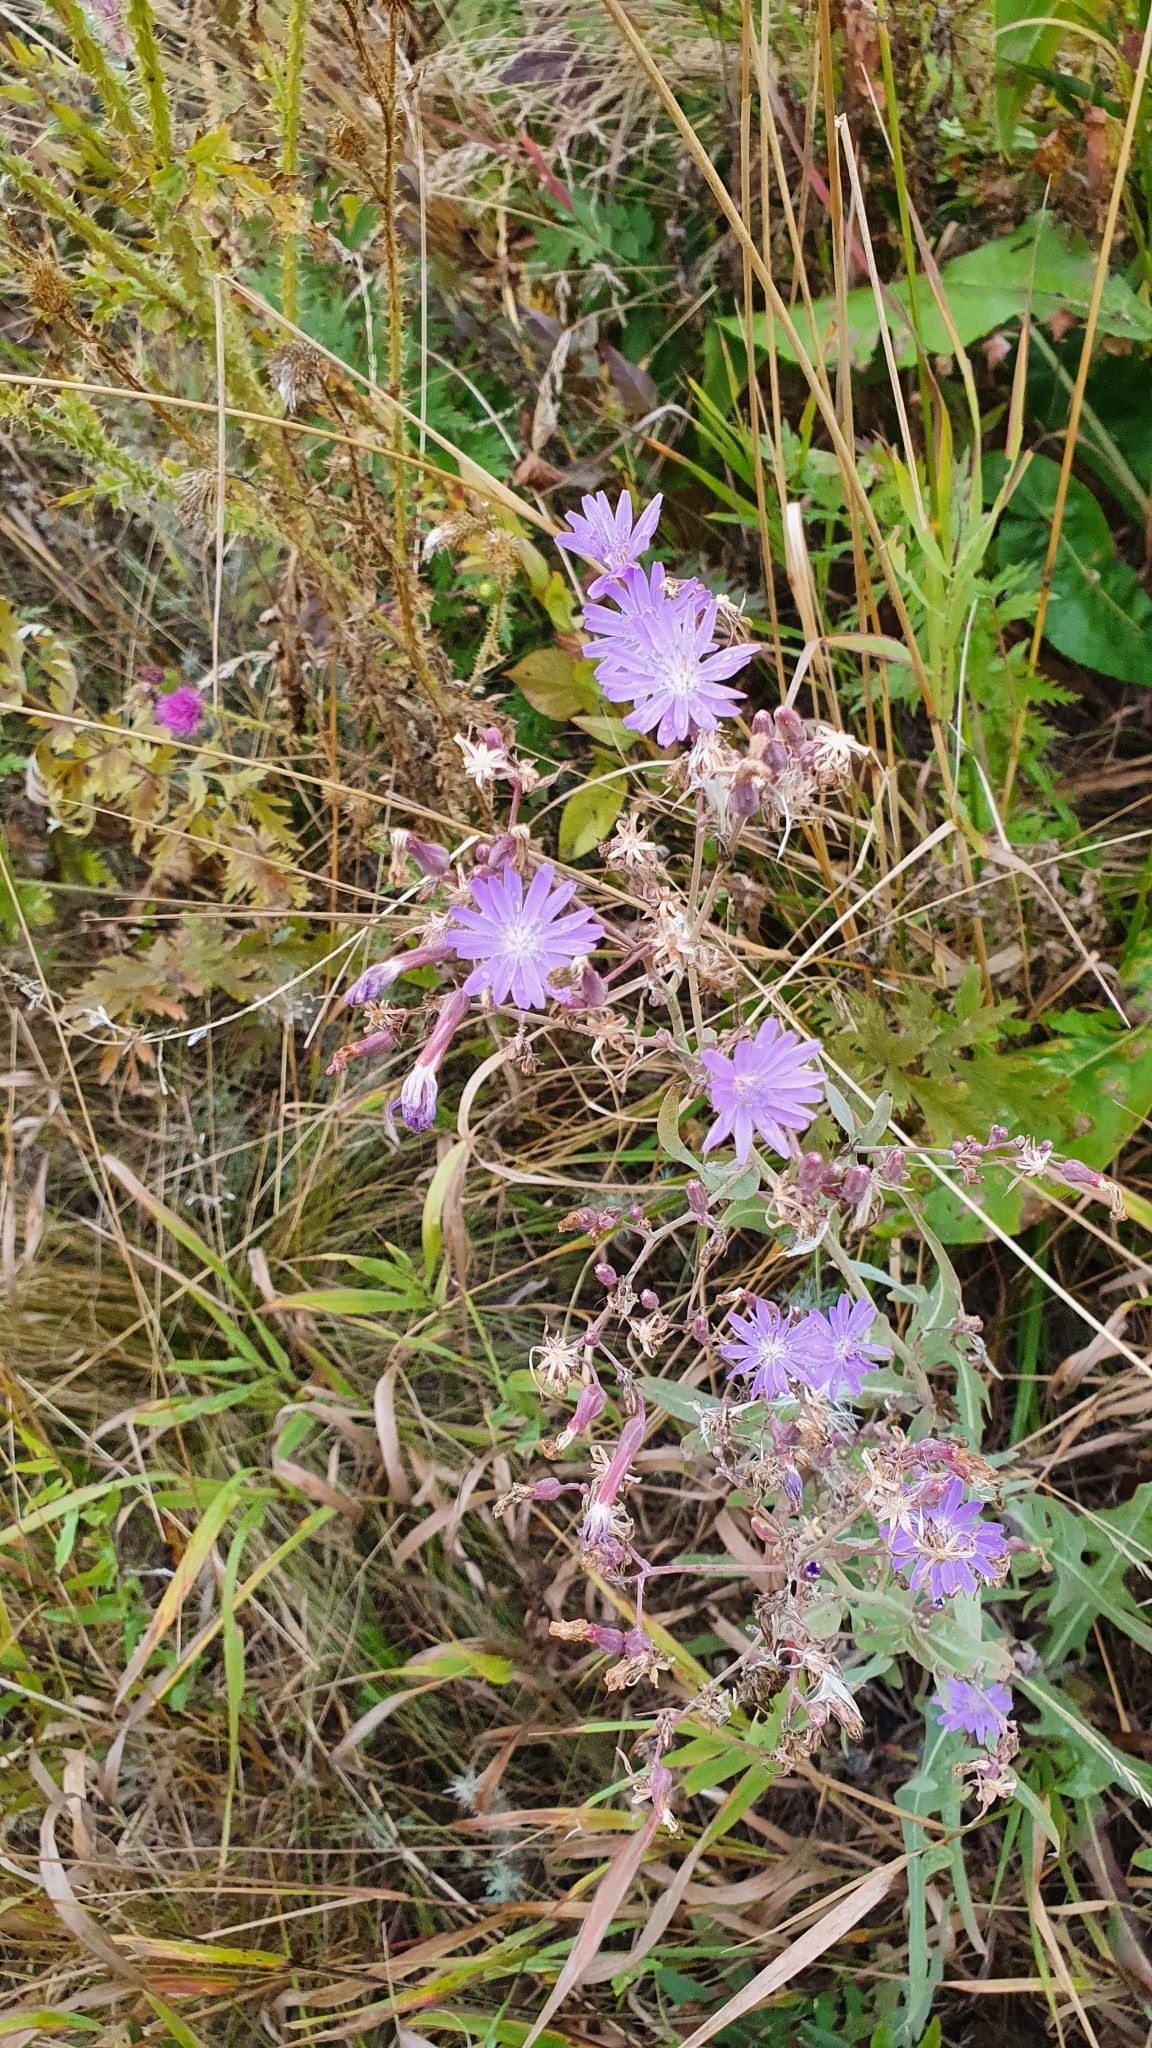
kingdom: Plantae
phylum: Tracheophyta
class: Magnoliopsida
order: Asterales
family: Asteraceae
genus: Lactuca
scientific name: Lactuca tatarica
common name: Blue lettuce
